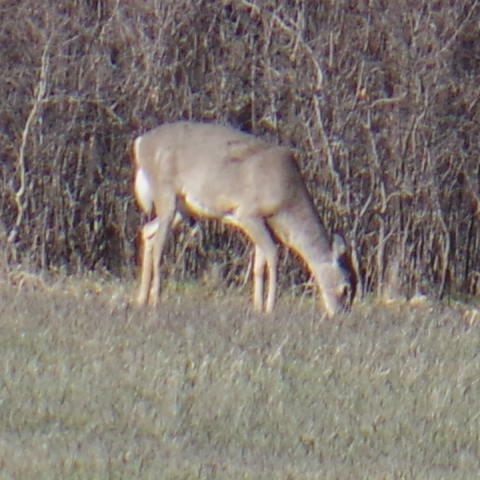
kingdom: Animalia
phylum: Chordata
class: Mammalia
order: Artiodactyla
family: Cervidae
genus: Odocoileus
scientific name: Odocoileus virginianus
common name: White-tailed deer
